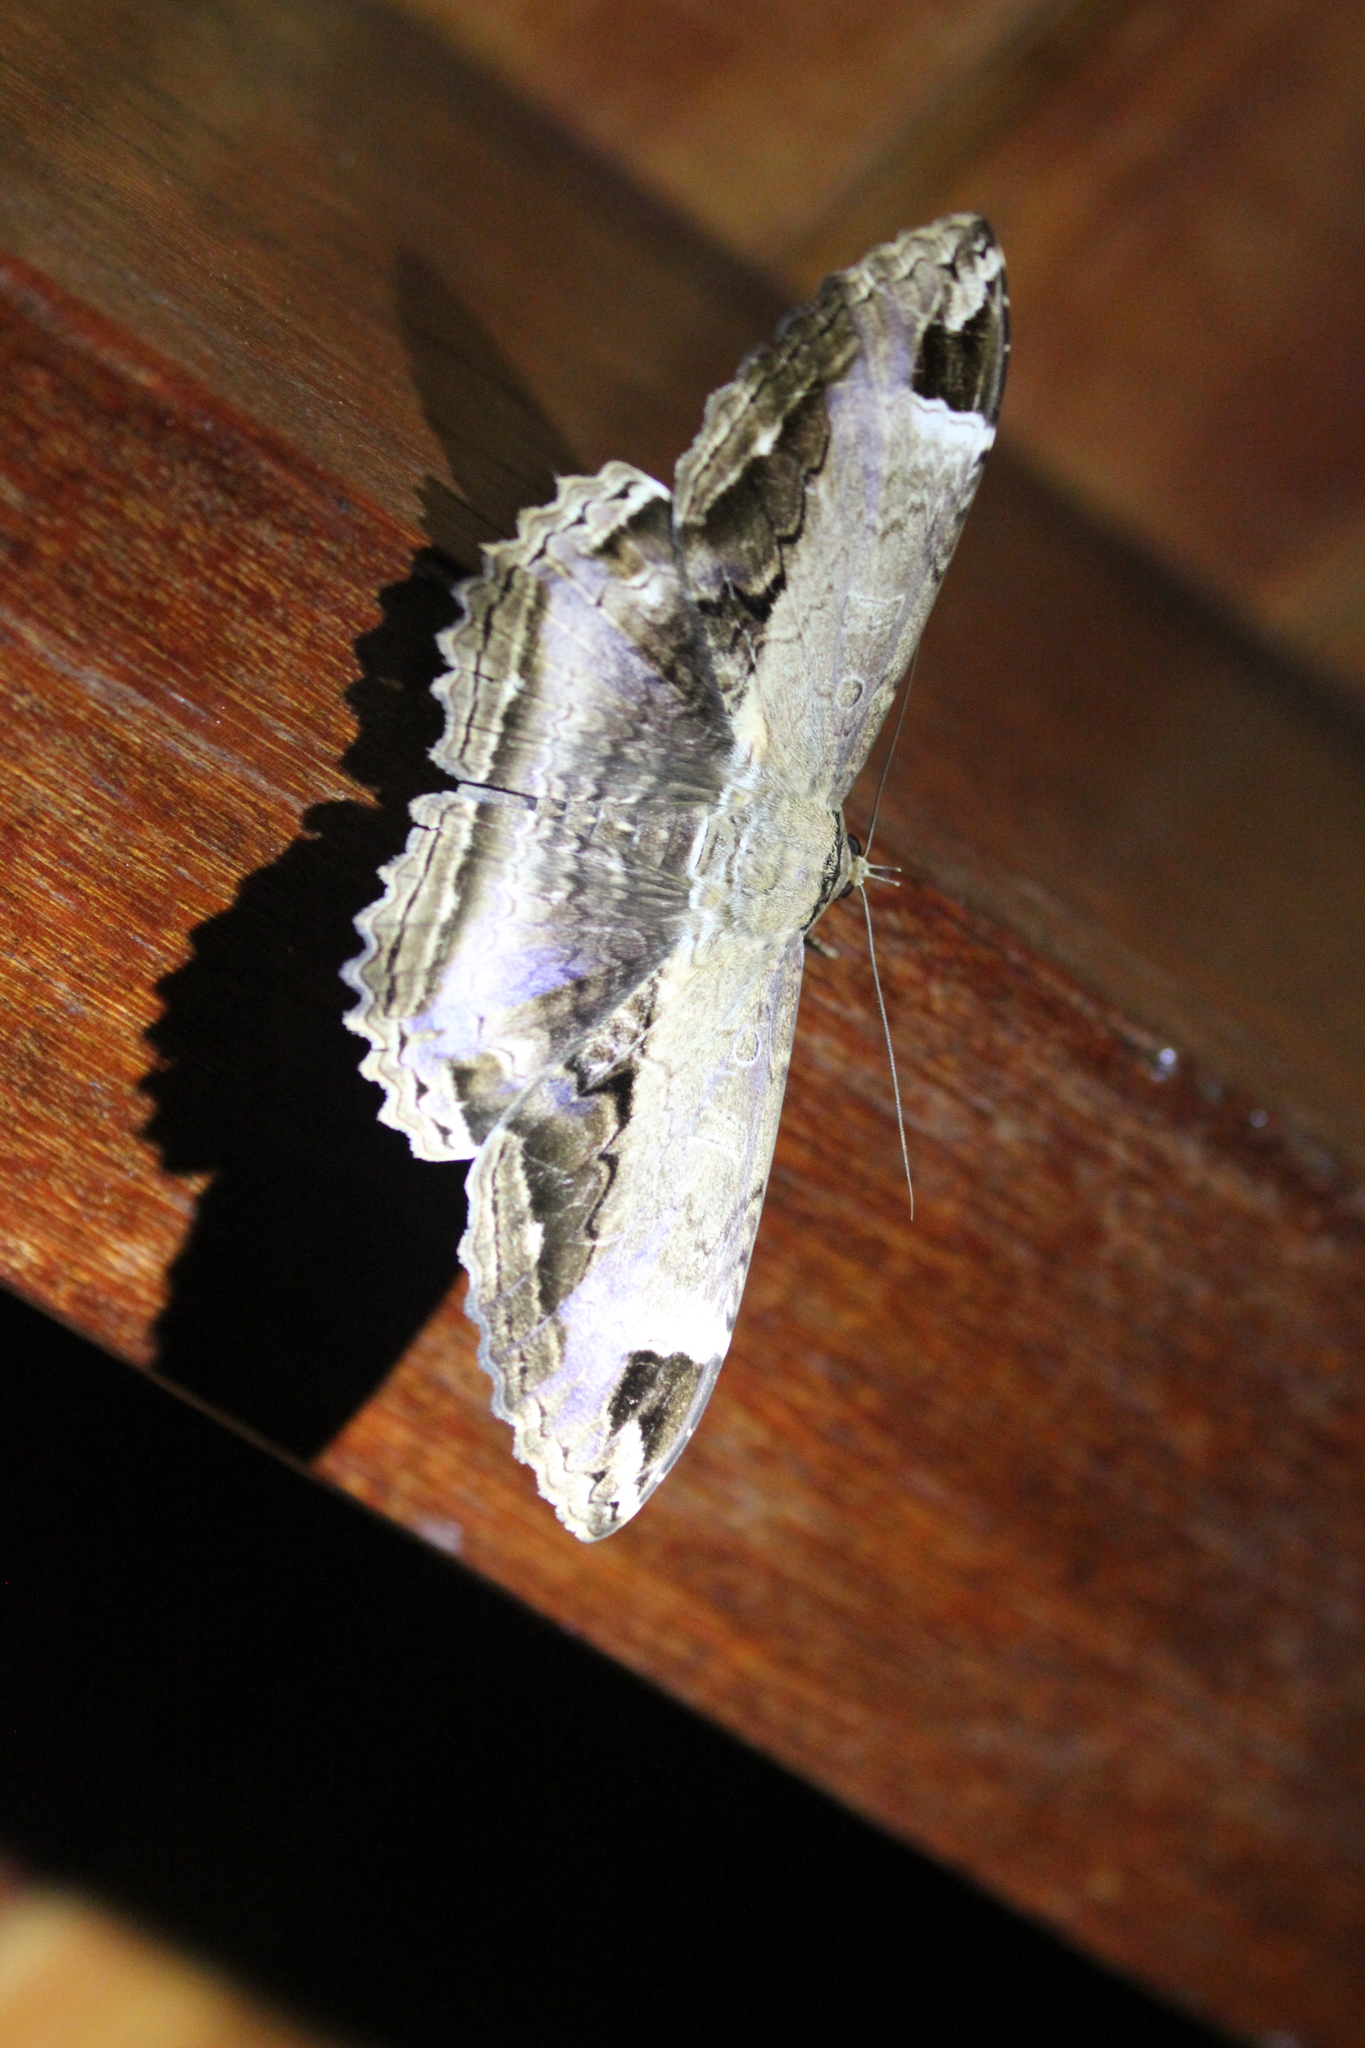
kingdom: Animalia
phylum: Arthropoda
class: Insecta
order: Lepidoptera
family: Noctuidae
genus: Ronania
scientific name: Ronania
